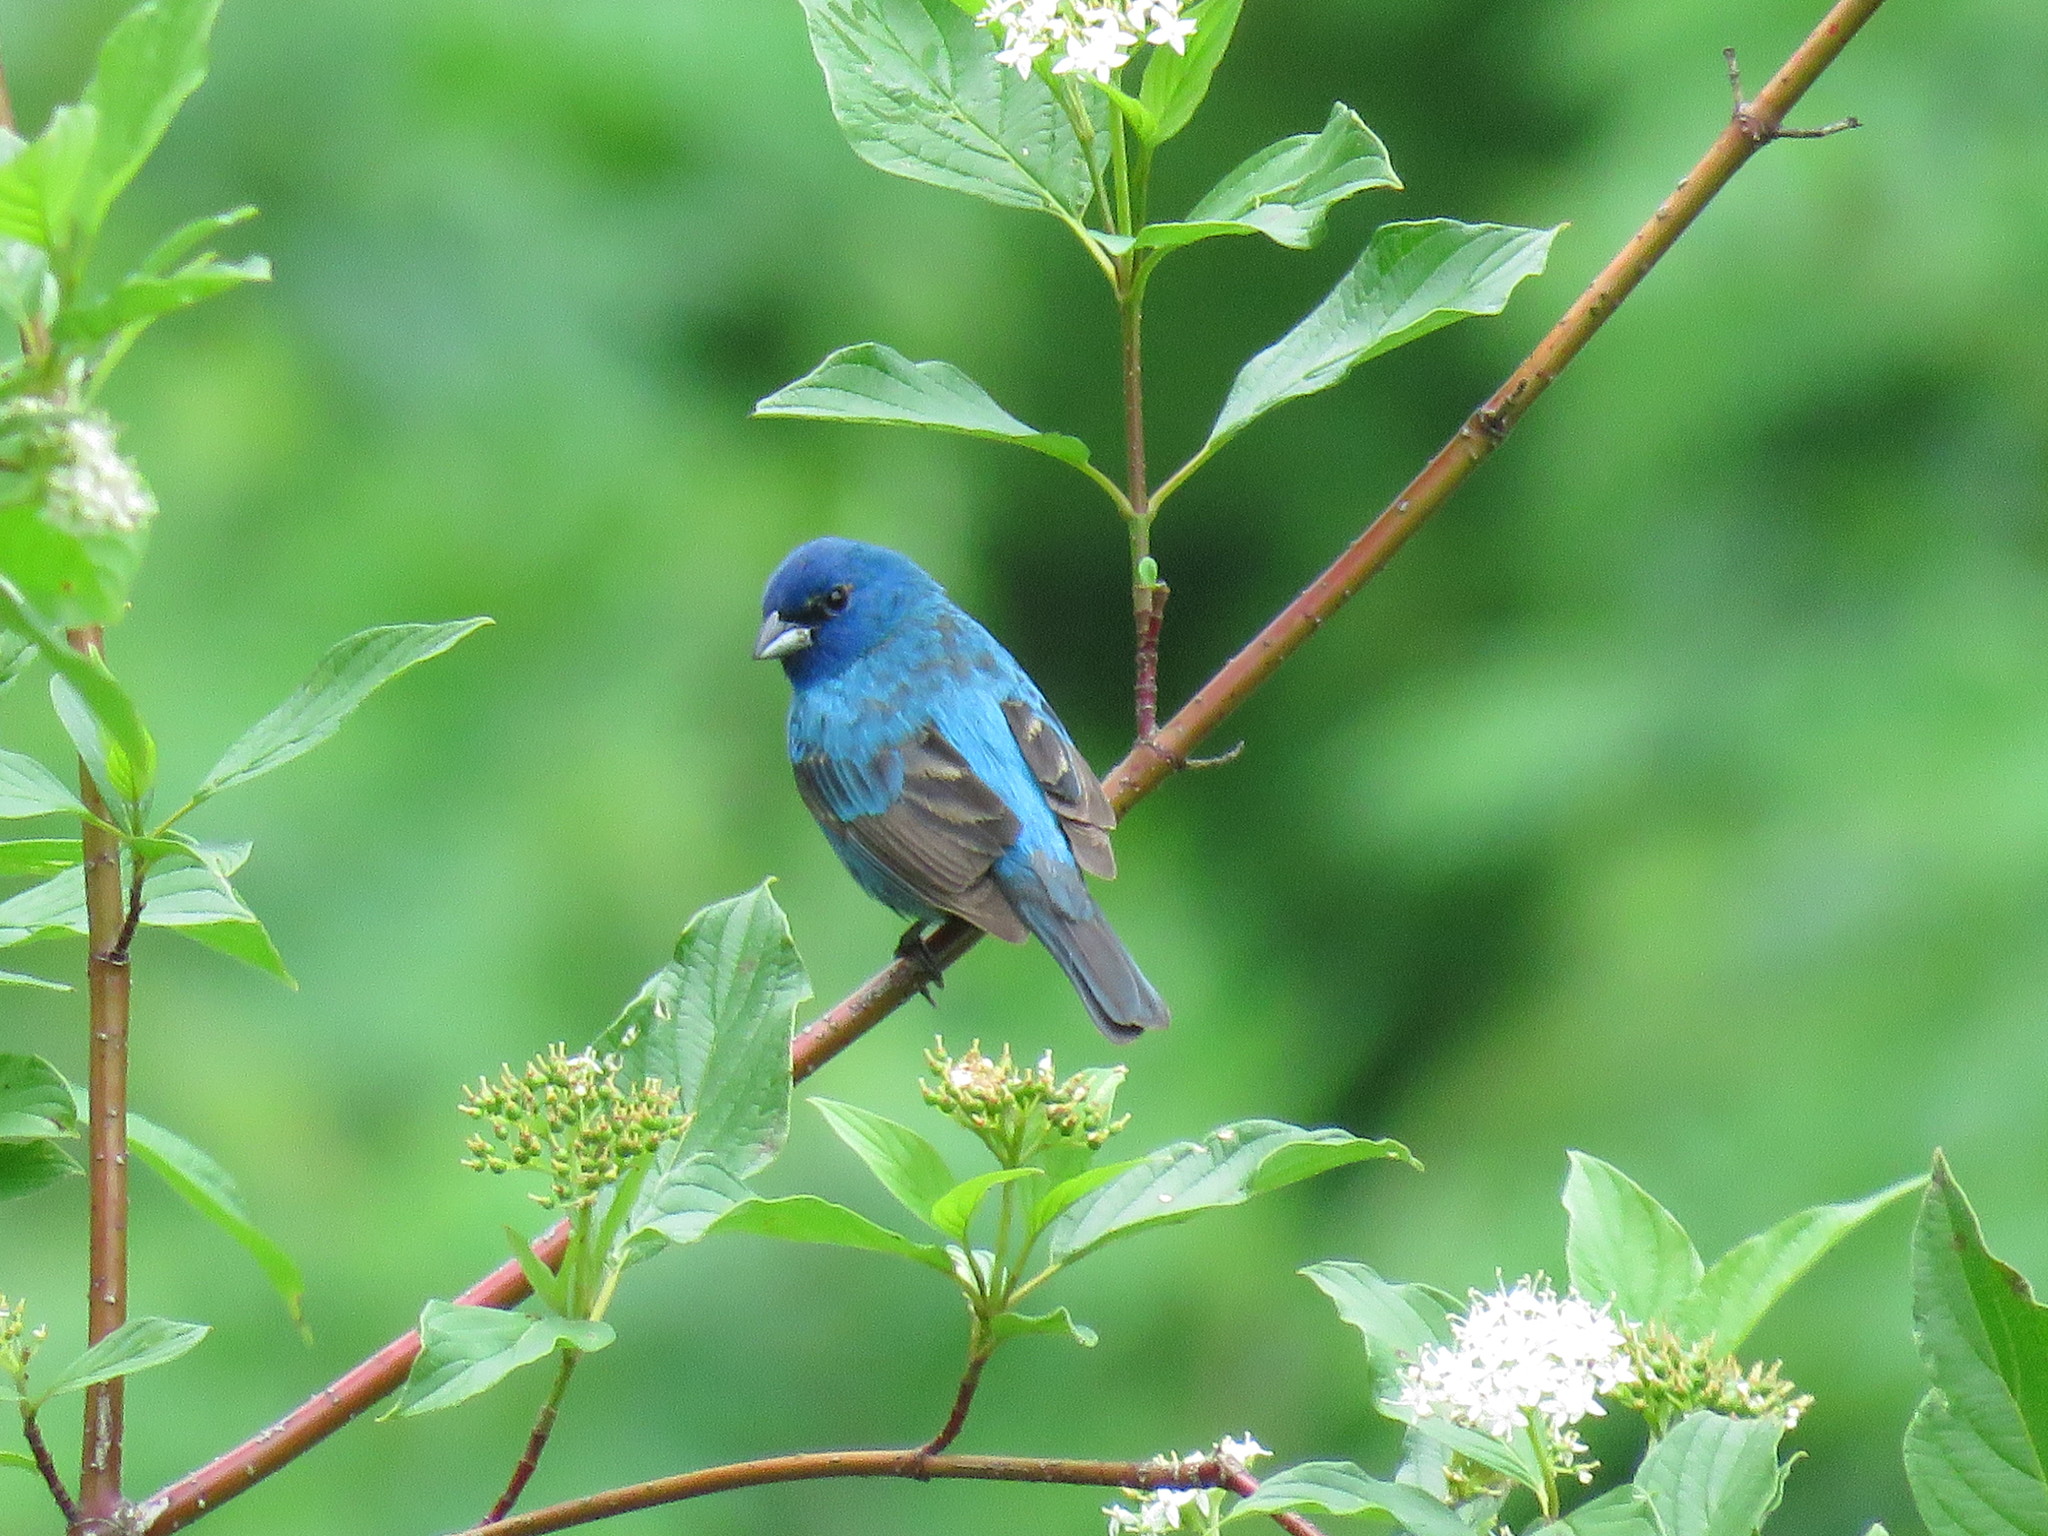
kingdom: Animalia
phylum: Chordata
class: Aves
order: Passeriformes
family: Cardinalidae
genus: Passerina
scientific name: Passerina cyanea
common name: Indigo bunting
